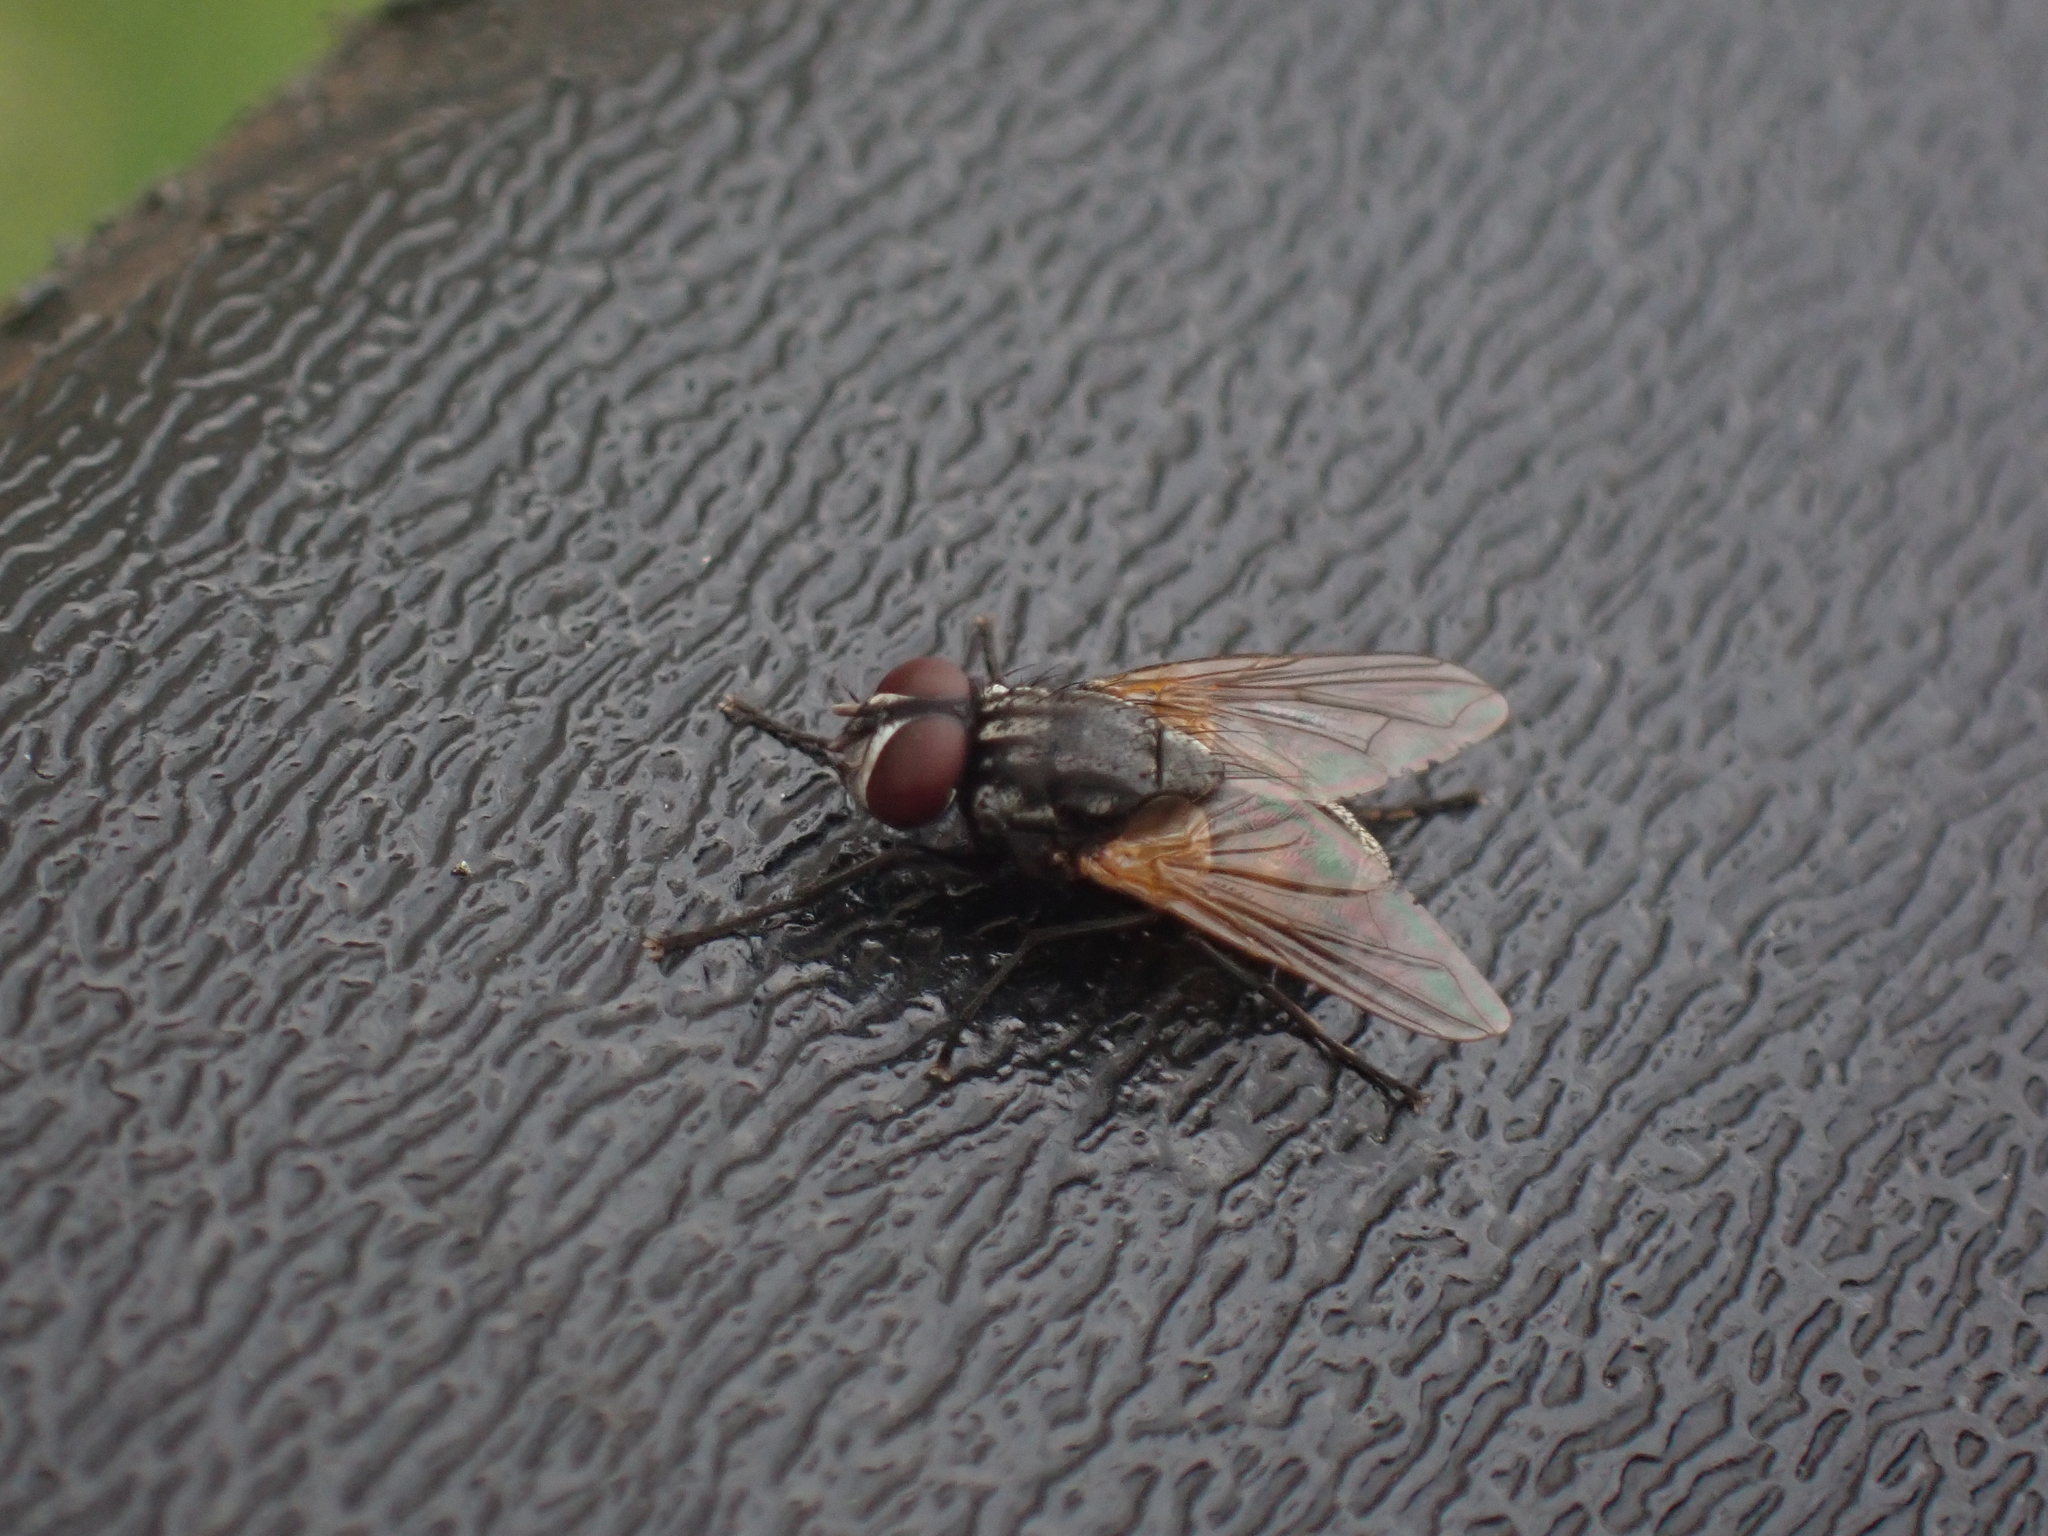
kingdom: Animalia
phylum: Arthropoda
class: Insecta
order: Diptera
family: Muscidae
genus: Musca
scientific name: Musca domestica
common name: House fly
